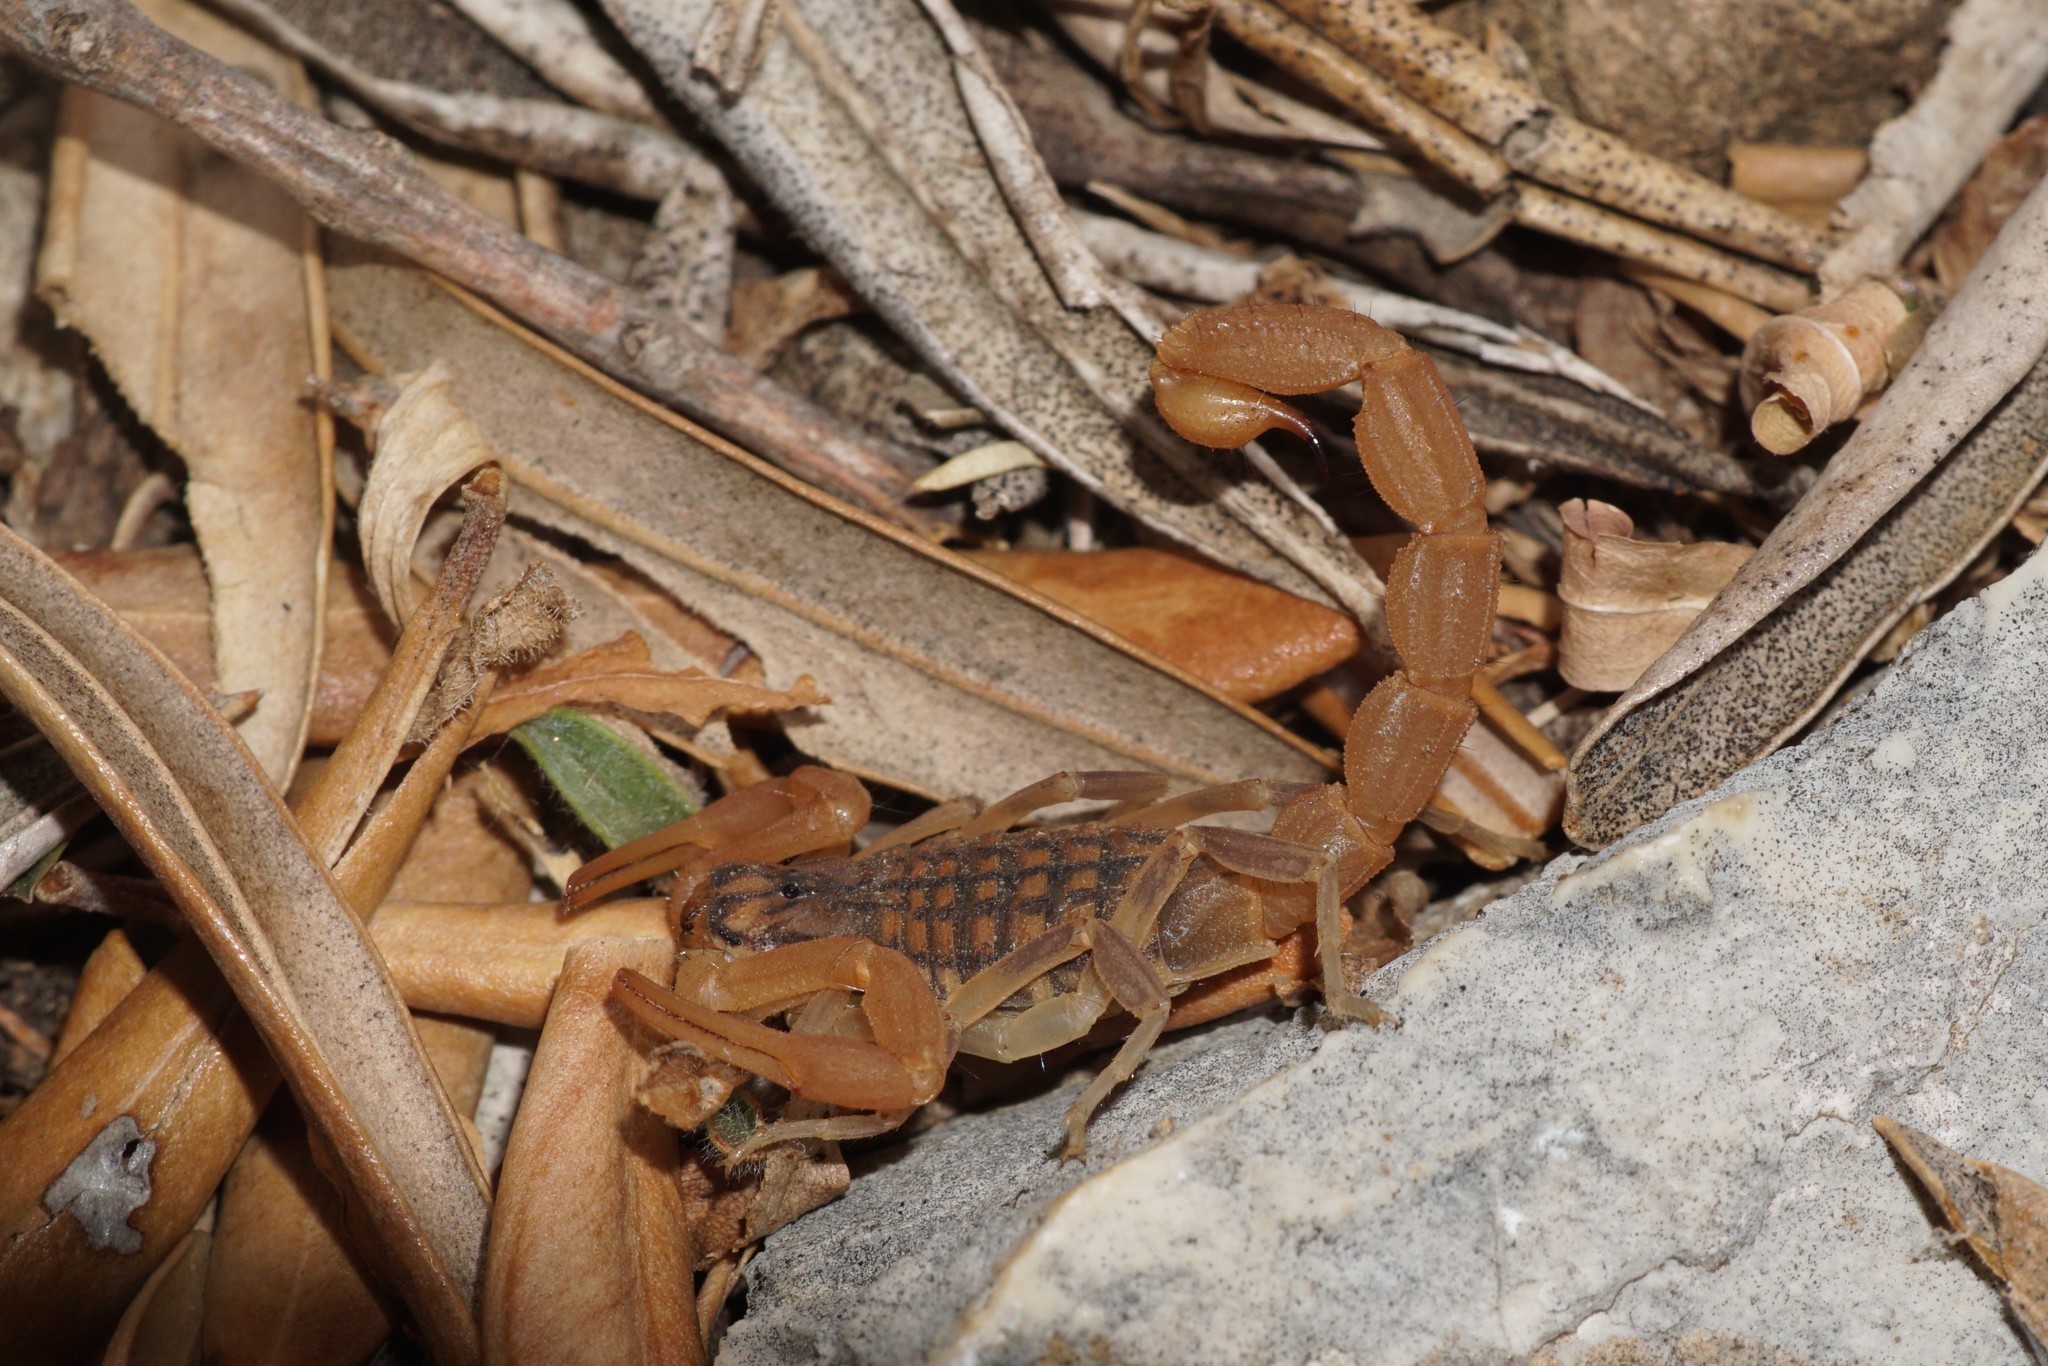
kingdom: Animalia
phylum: Arthropoda
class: Arachnida
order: Scorpiones
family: Buthidae
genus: Aegaeobuthus
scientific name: Aegaeobuthus gibbosus
